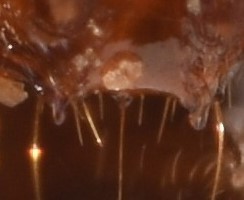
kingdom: Animalia
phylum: Arthropoda
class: Insecta
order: Hymenoptera
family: Formicidae
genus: Solenopsis
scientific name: Solenopsis invicta
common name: Red imported fire ant
